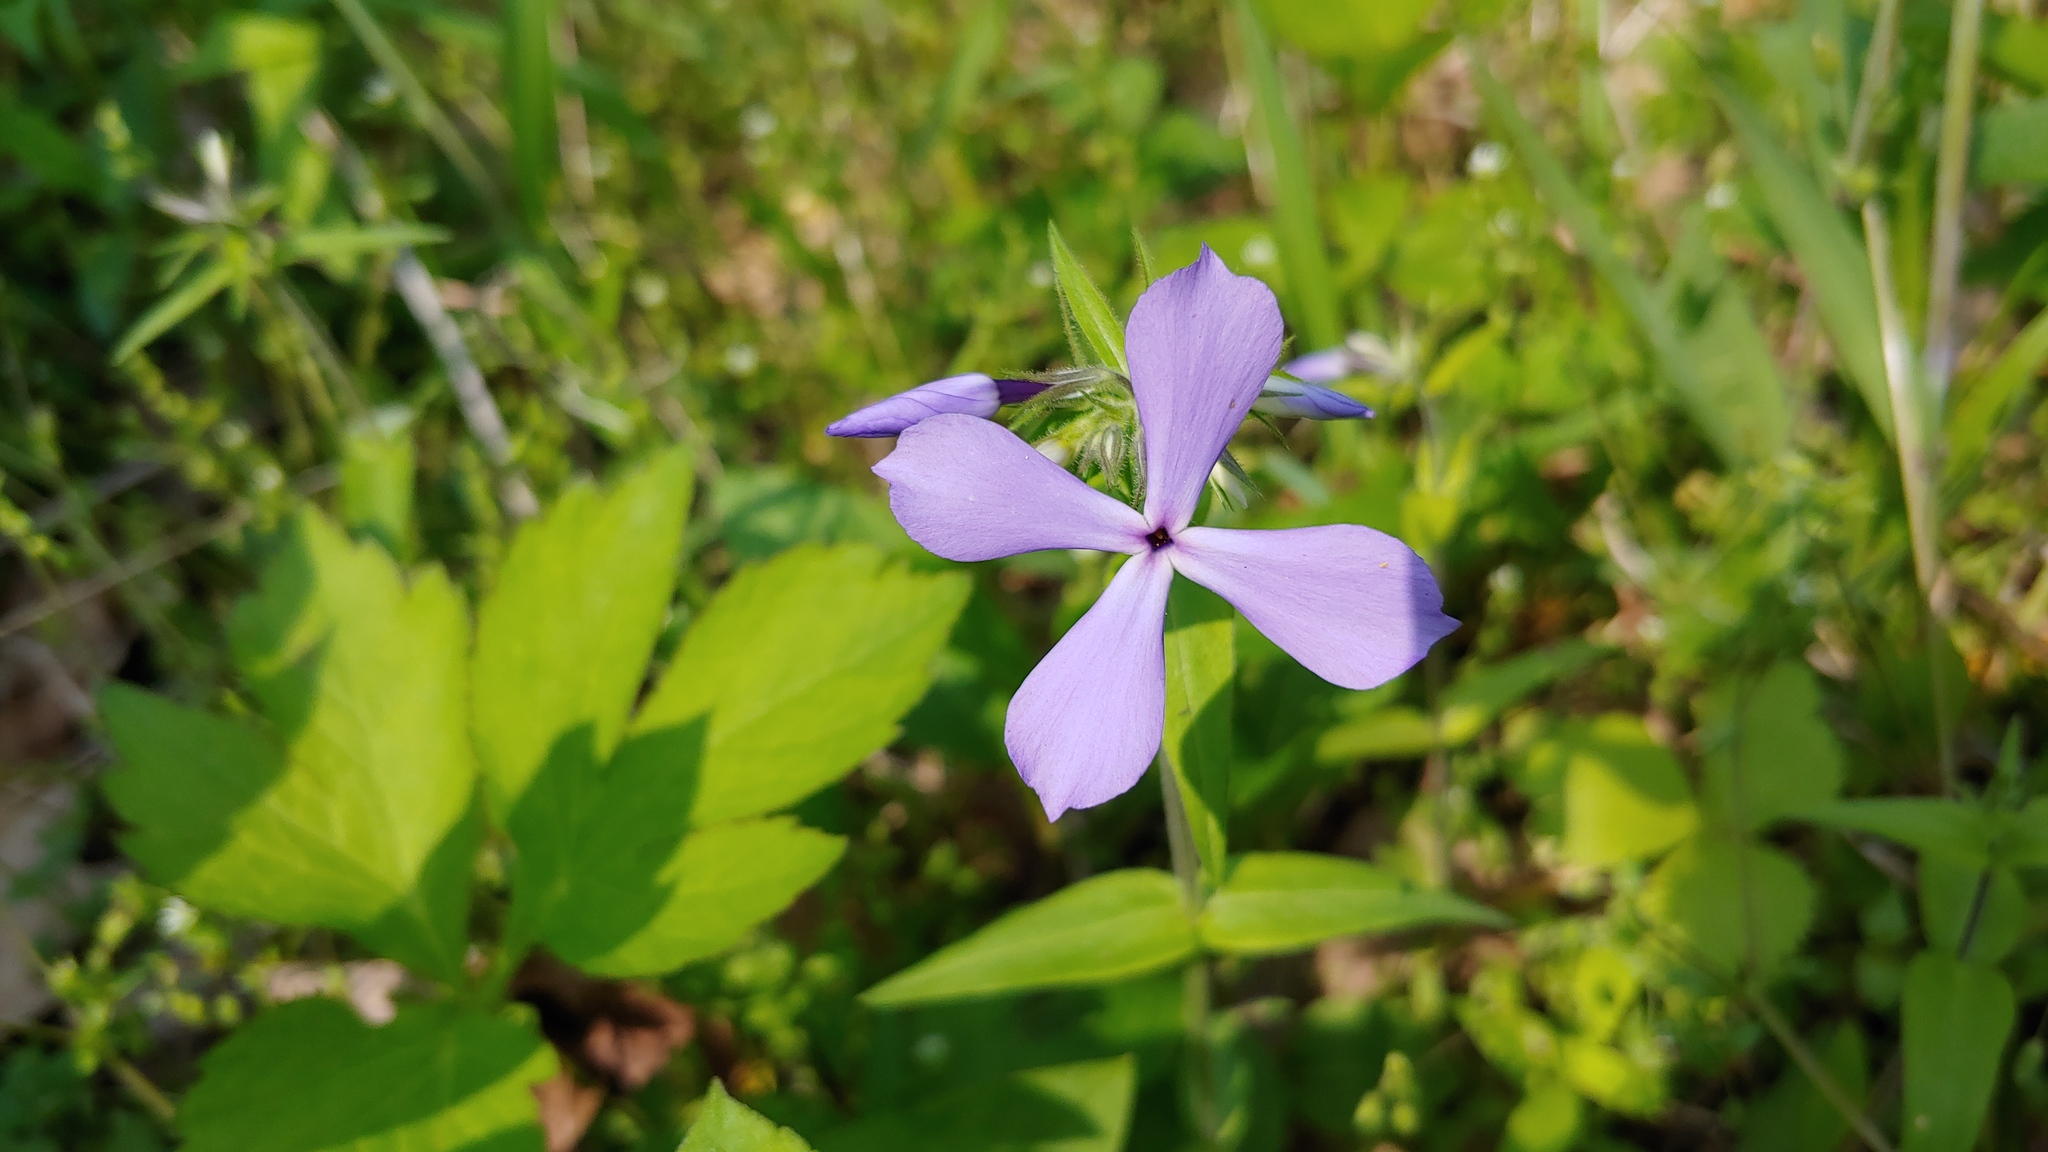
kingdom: Plantae
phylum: Tracheophyta
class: Magnoliopsida
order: Ericales
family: Polemoniaceae
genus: Phlox
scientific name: Phlox divaricata
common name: Blue phlox
